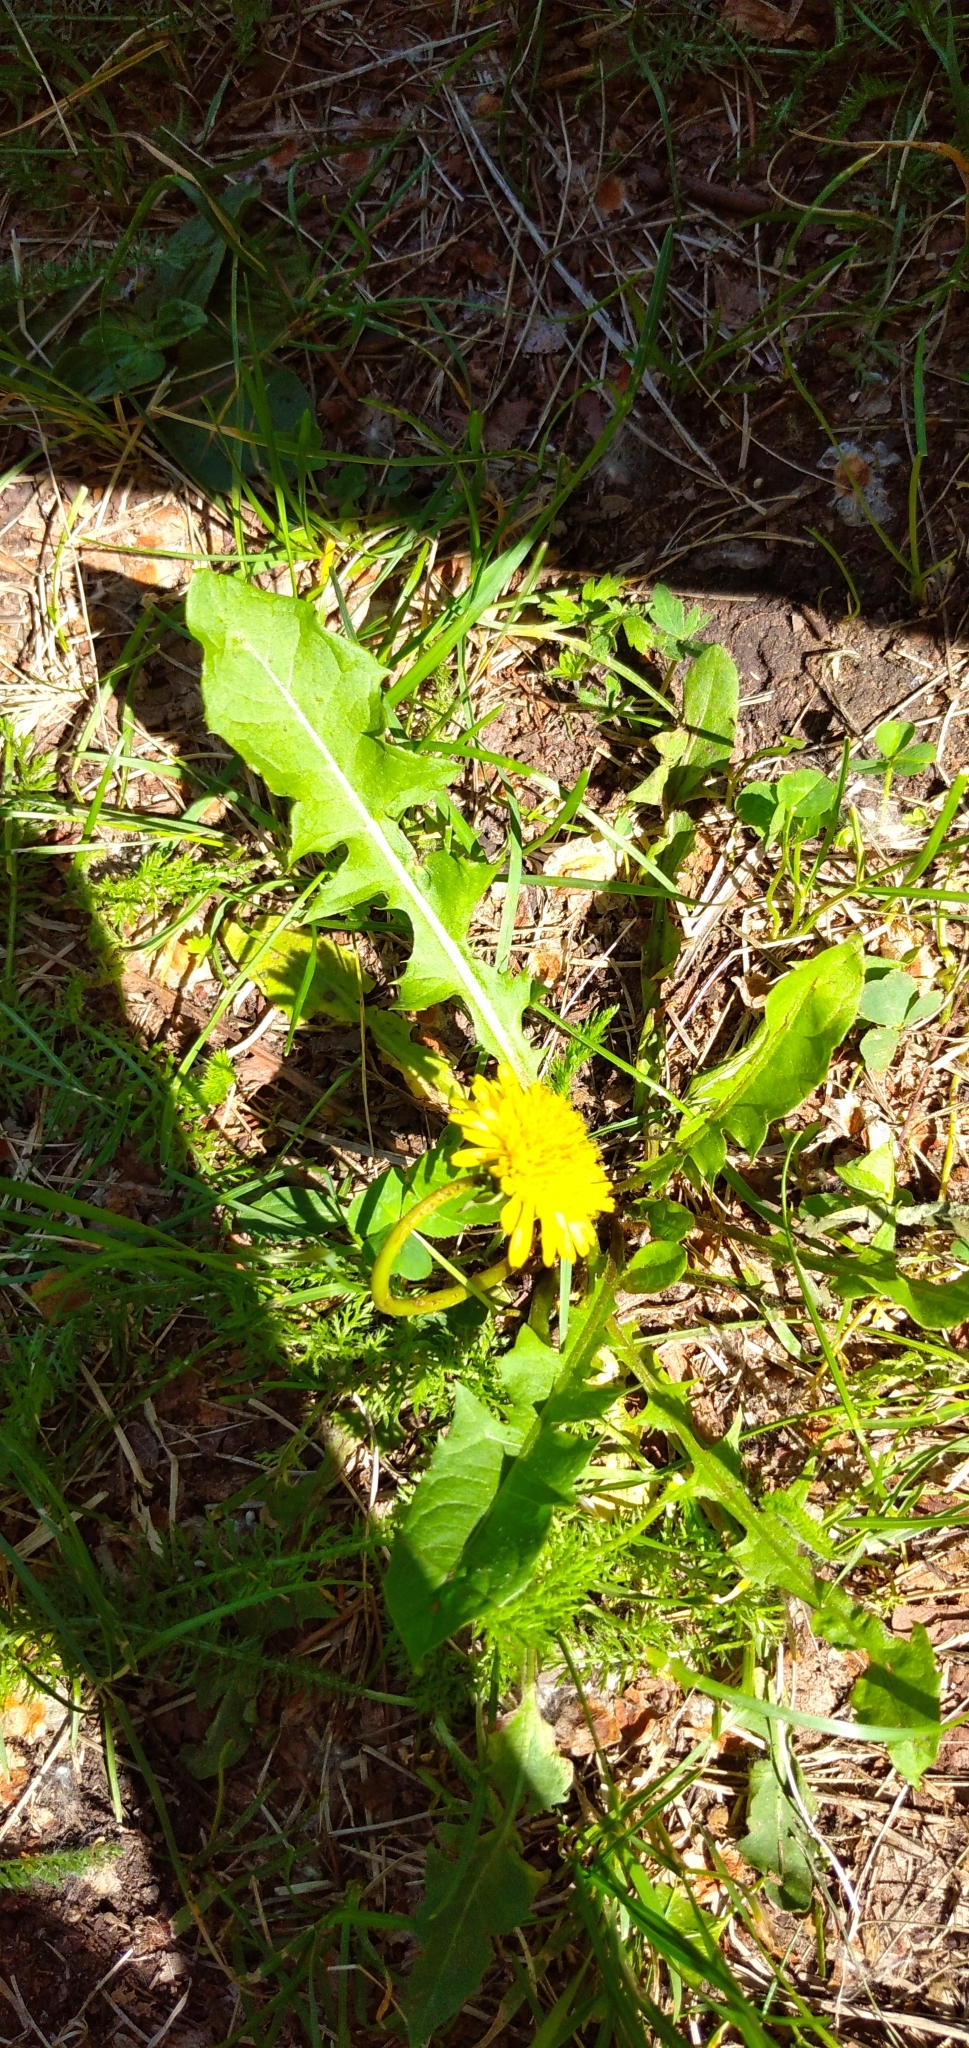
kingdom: Plantae
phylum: Tracheophyta
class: Magnoliopsida
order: Asterales
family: Asteraceae
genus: Taraxacum
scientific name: Taraxacum officinale
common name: Common dandelion
